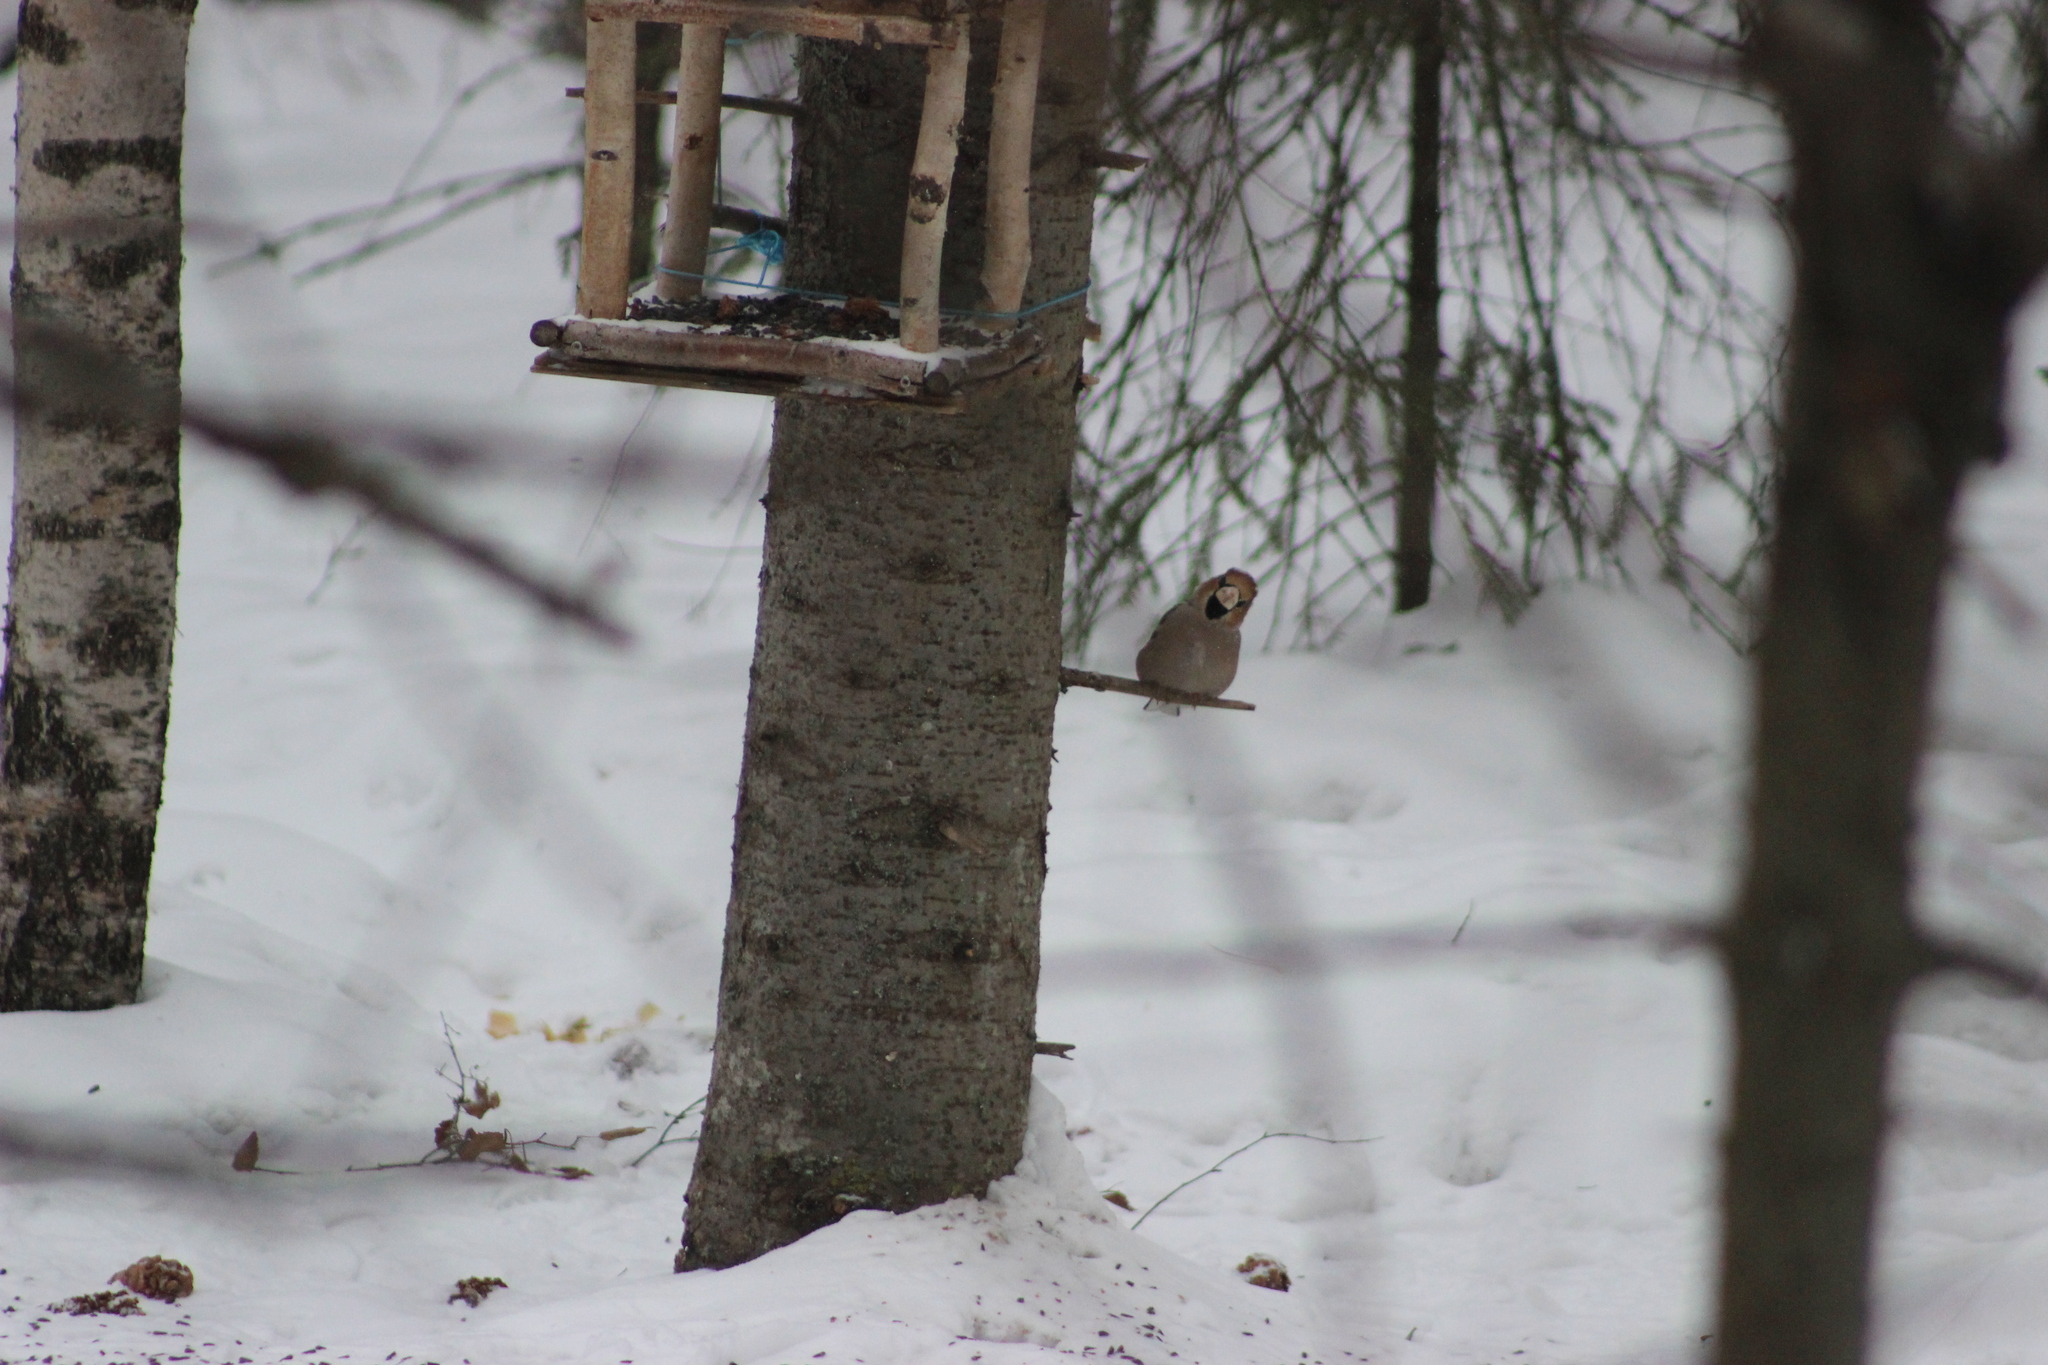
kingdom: Animalia
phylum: Chordata
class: Aves
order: Passeriformes
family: Fringillidae
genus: Coccothraustes
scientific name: Coccothraustes coccothraustes
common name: Hawfinch
